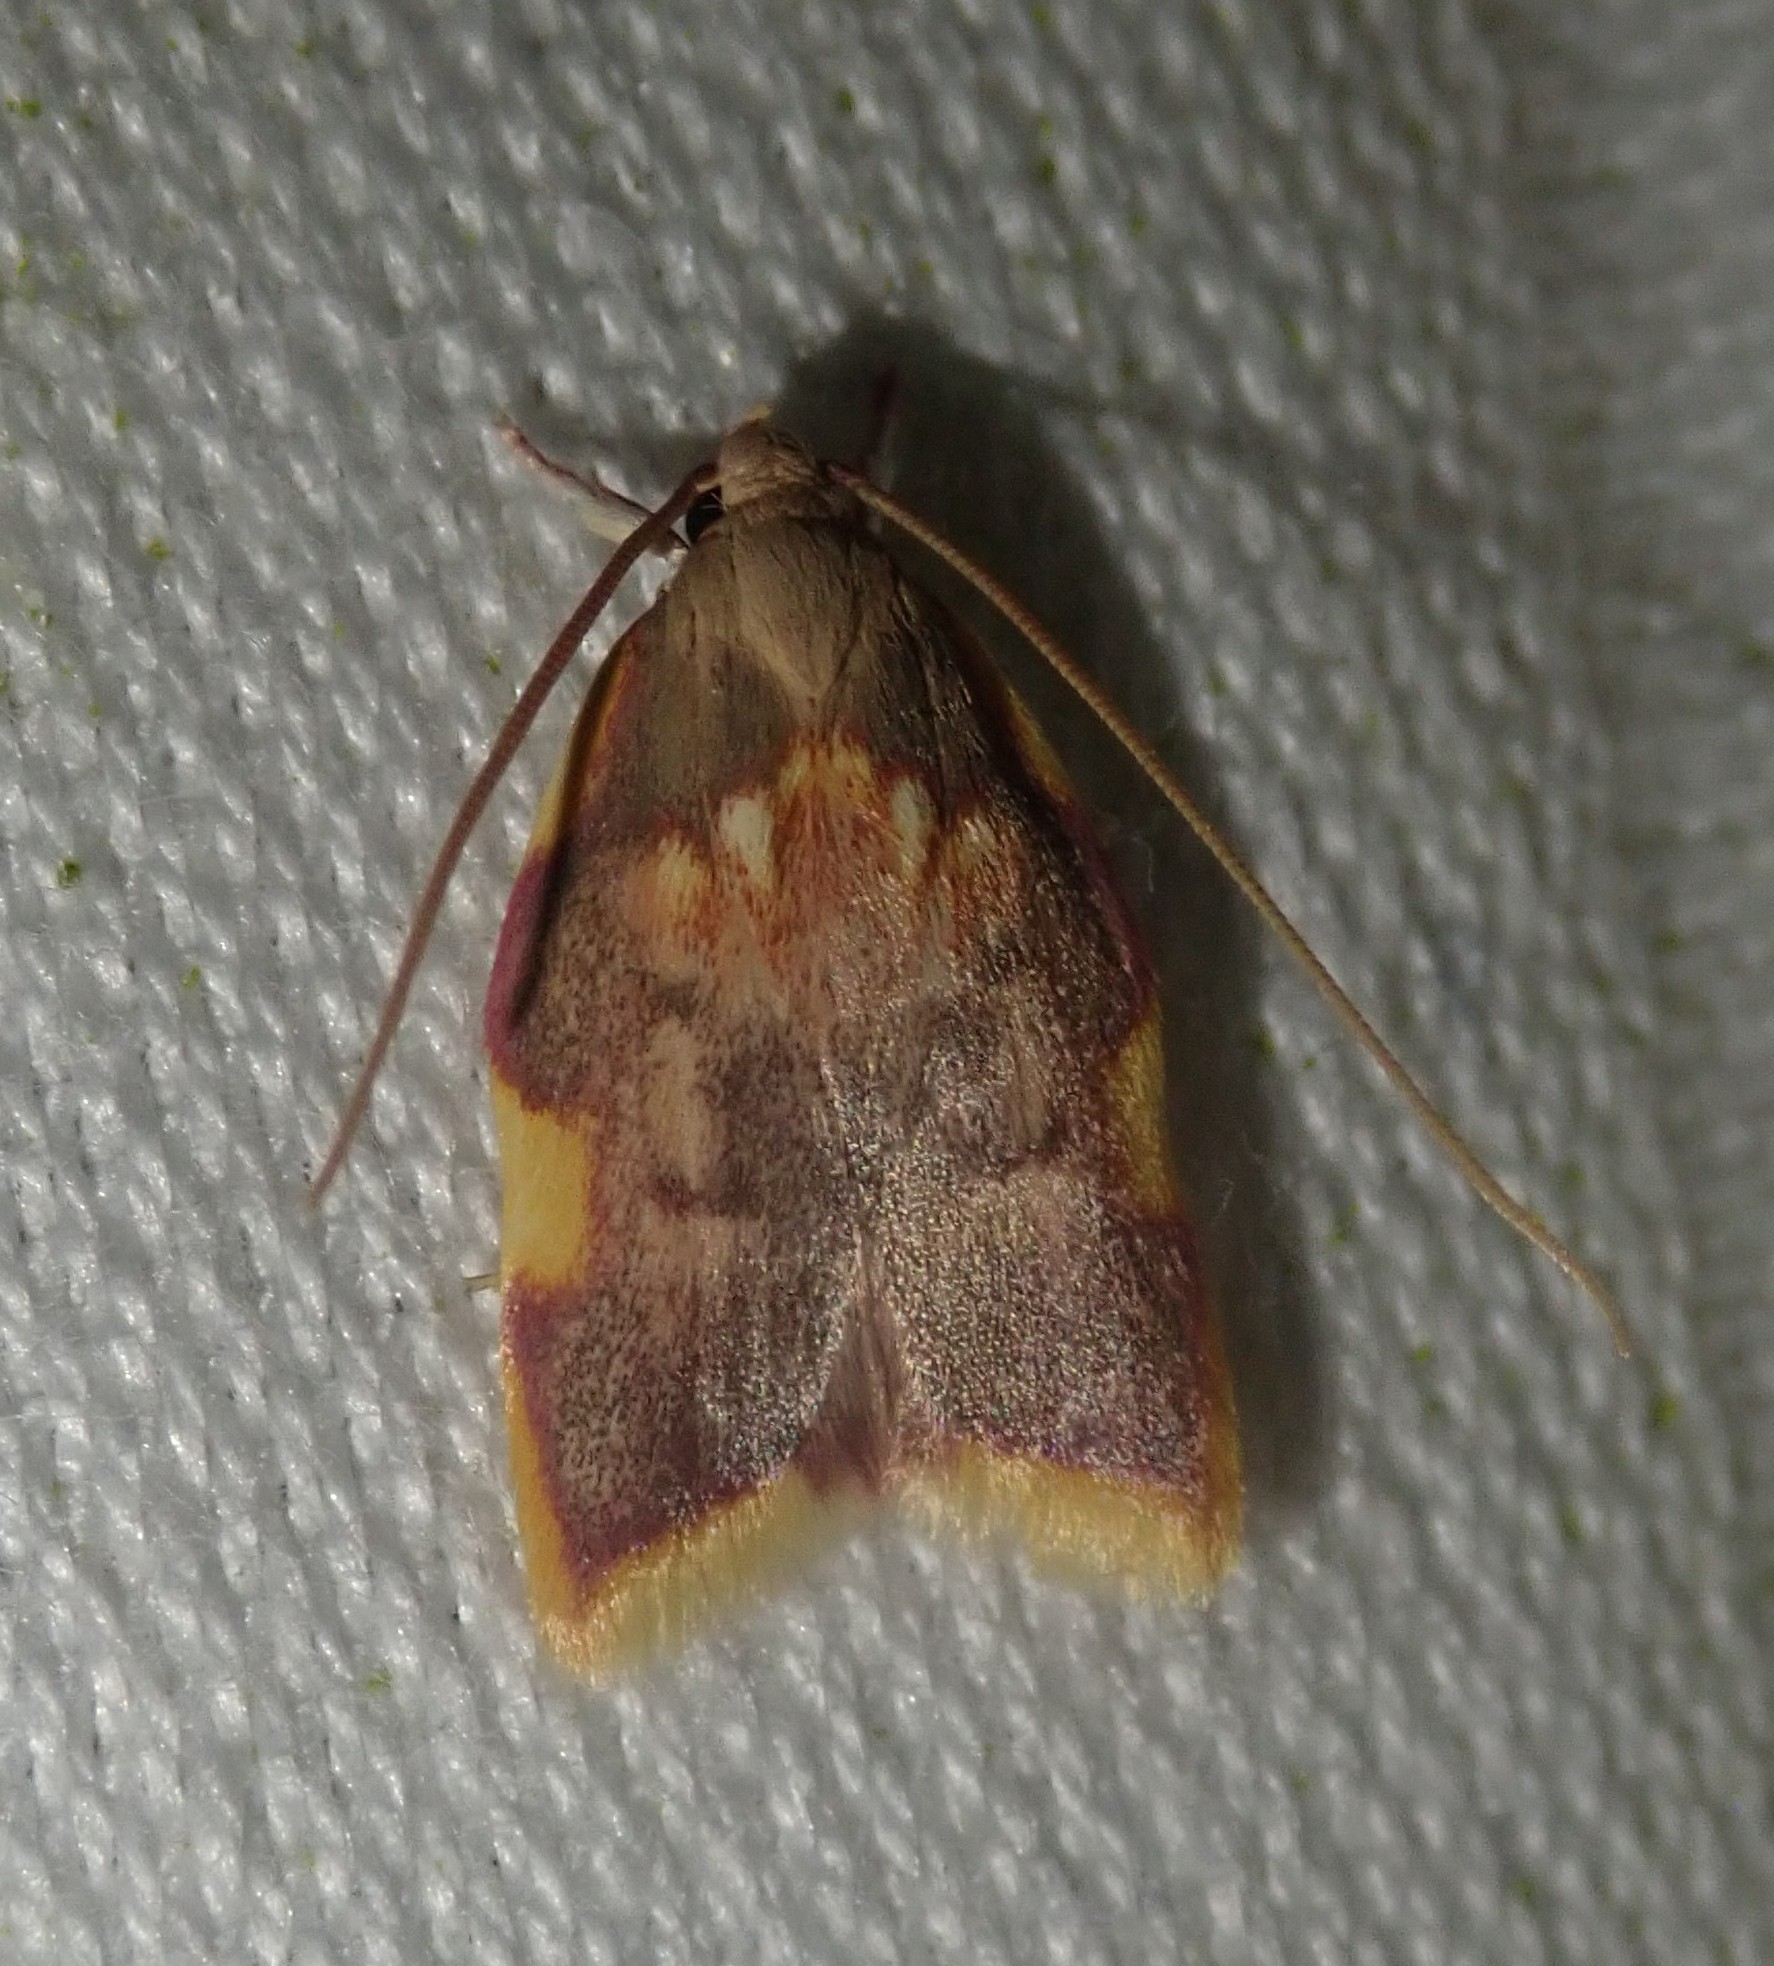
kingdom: Animalia
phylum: Arthropoda
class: Insecta
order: Lepidoptera
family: Peleopodidae
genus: Carcina
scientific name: Carcina quercana
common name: Moth
